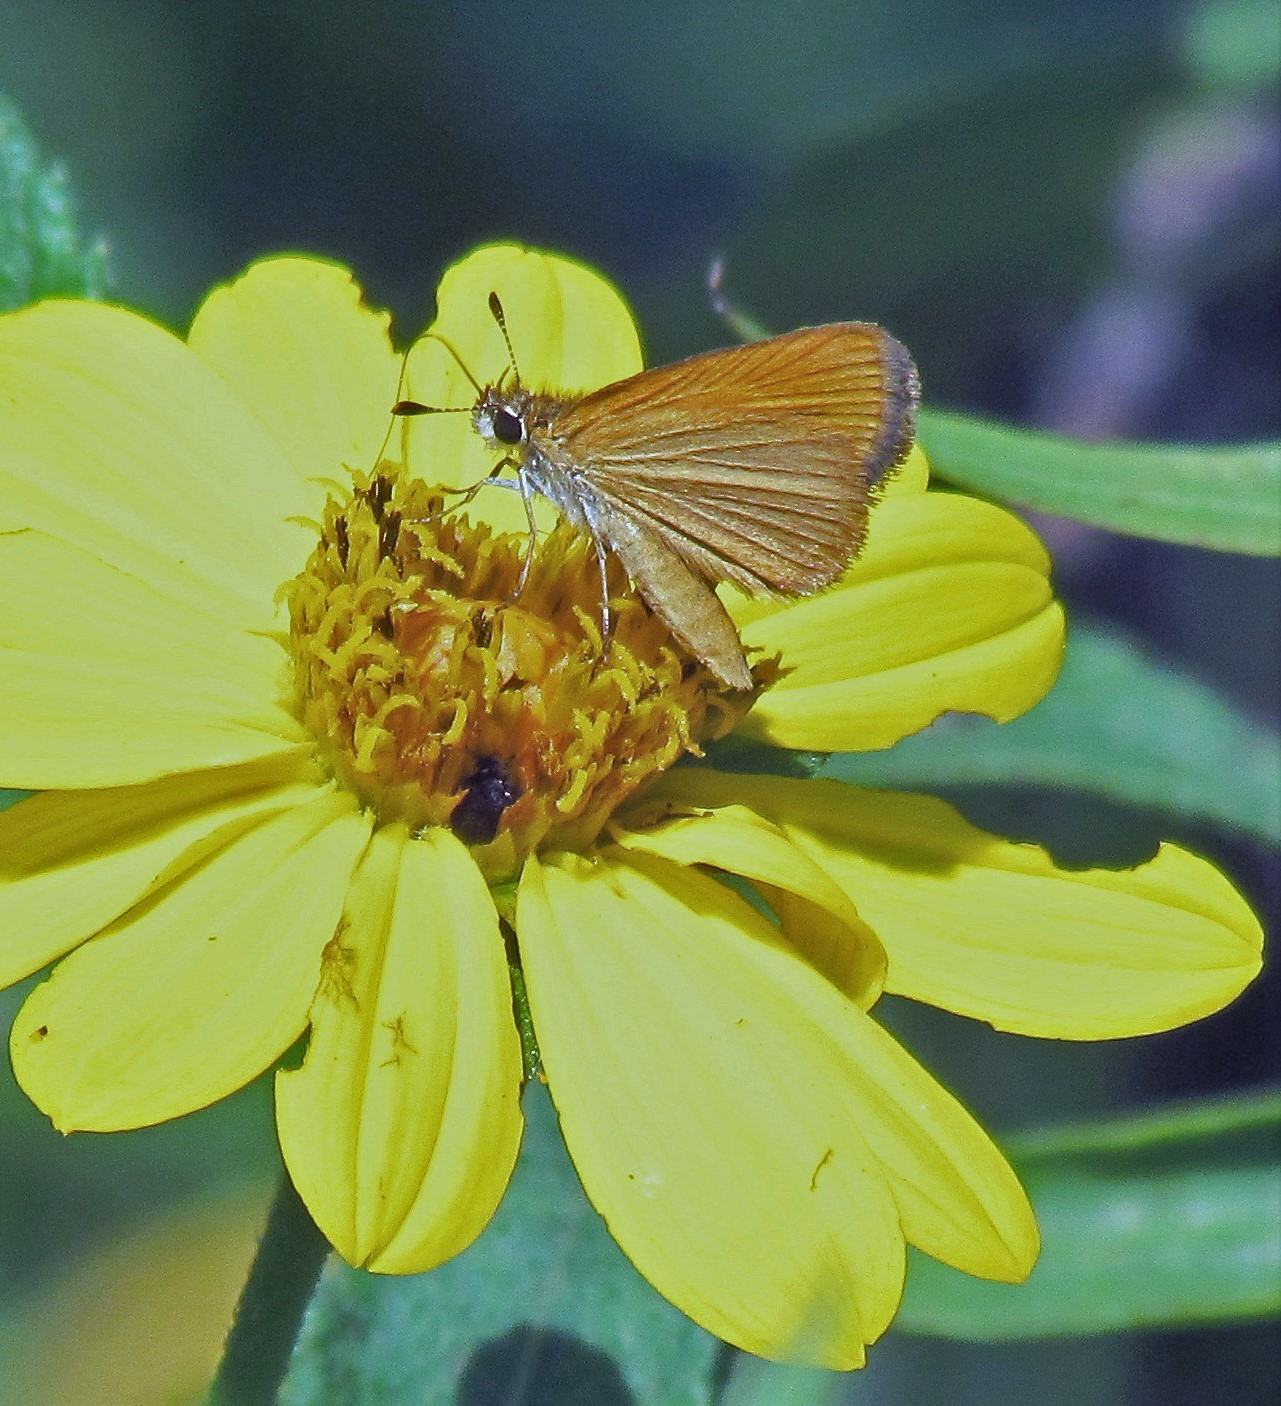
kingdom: Animalia
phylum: Arthropoda
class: Insecta
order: Lepidoptera
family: Hesperiidae
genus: Ancyloxypha
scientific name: Ancyloxypha nitedula
